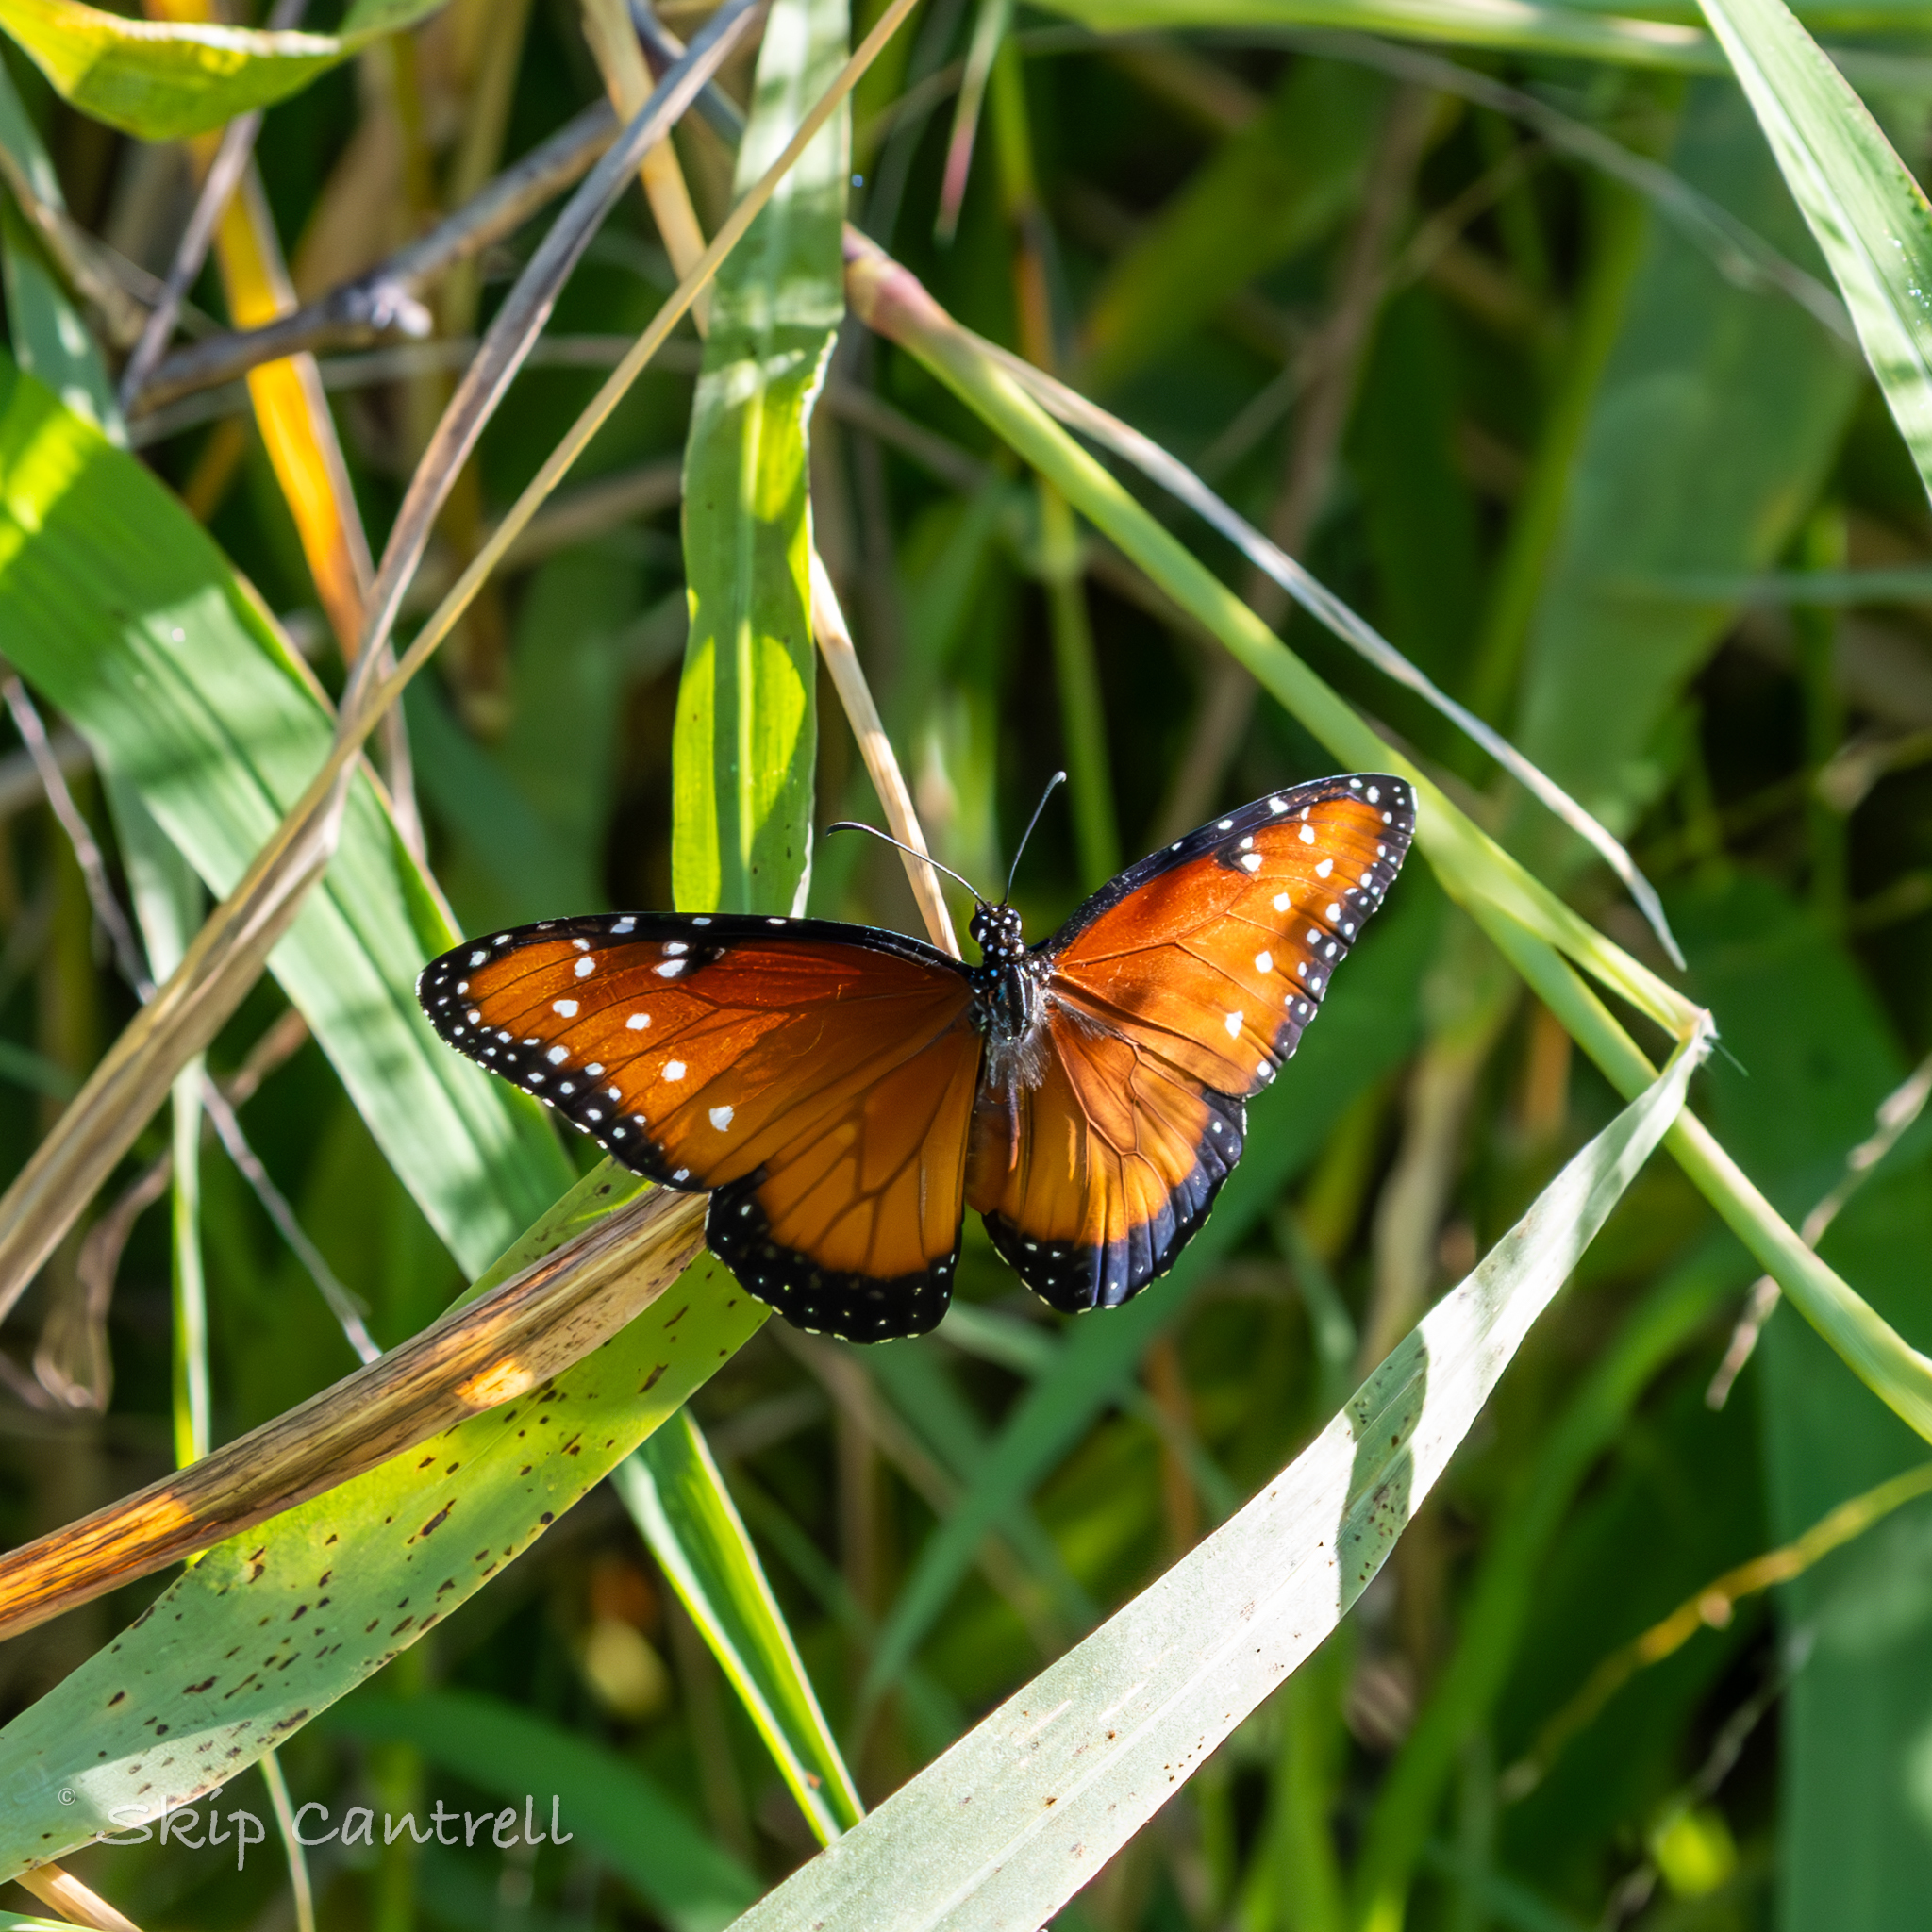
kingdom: Animalia
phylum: Arthropoda
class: Insecta
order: Lepidoptera
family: Nymphalidae
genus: Danaus
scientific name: Danaus gilippus
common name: Queen
